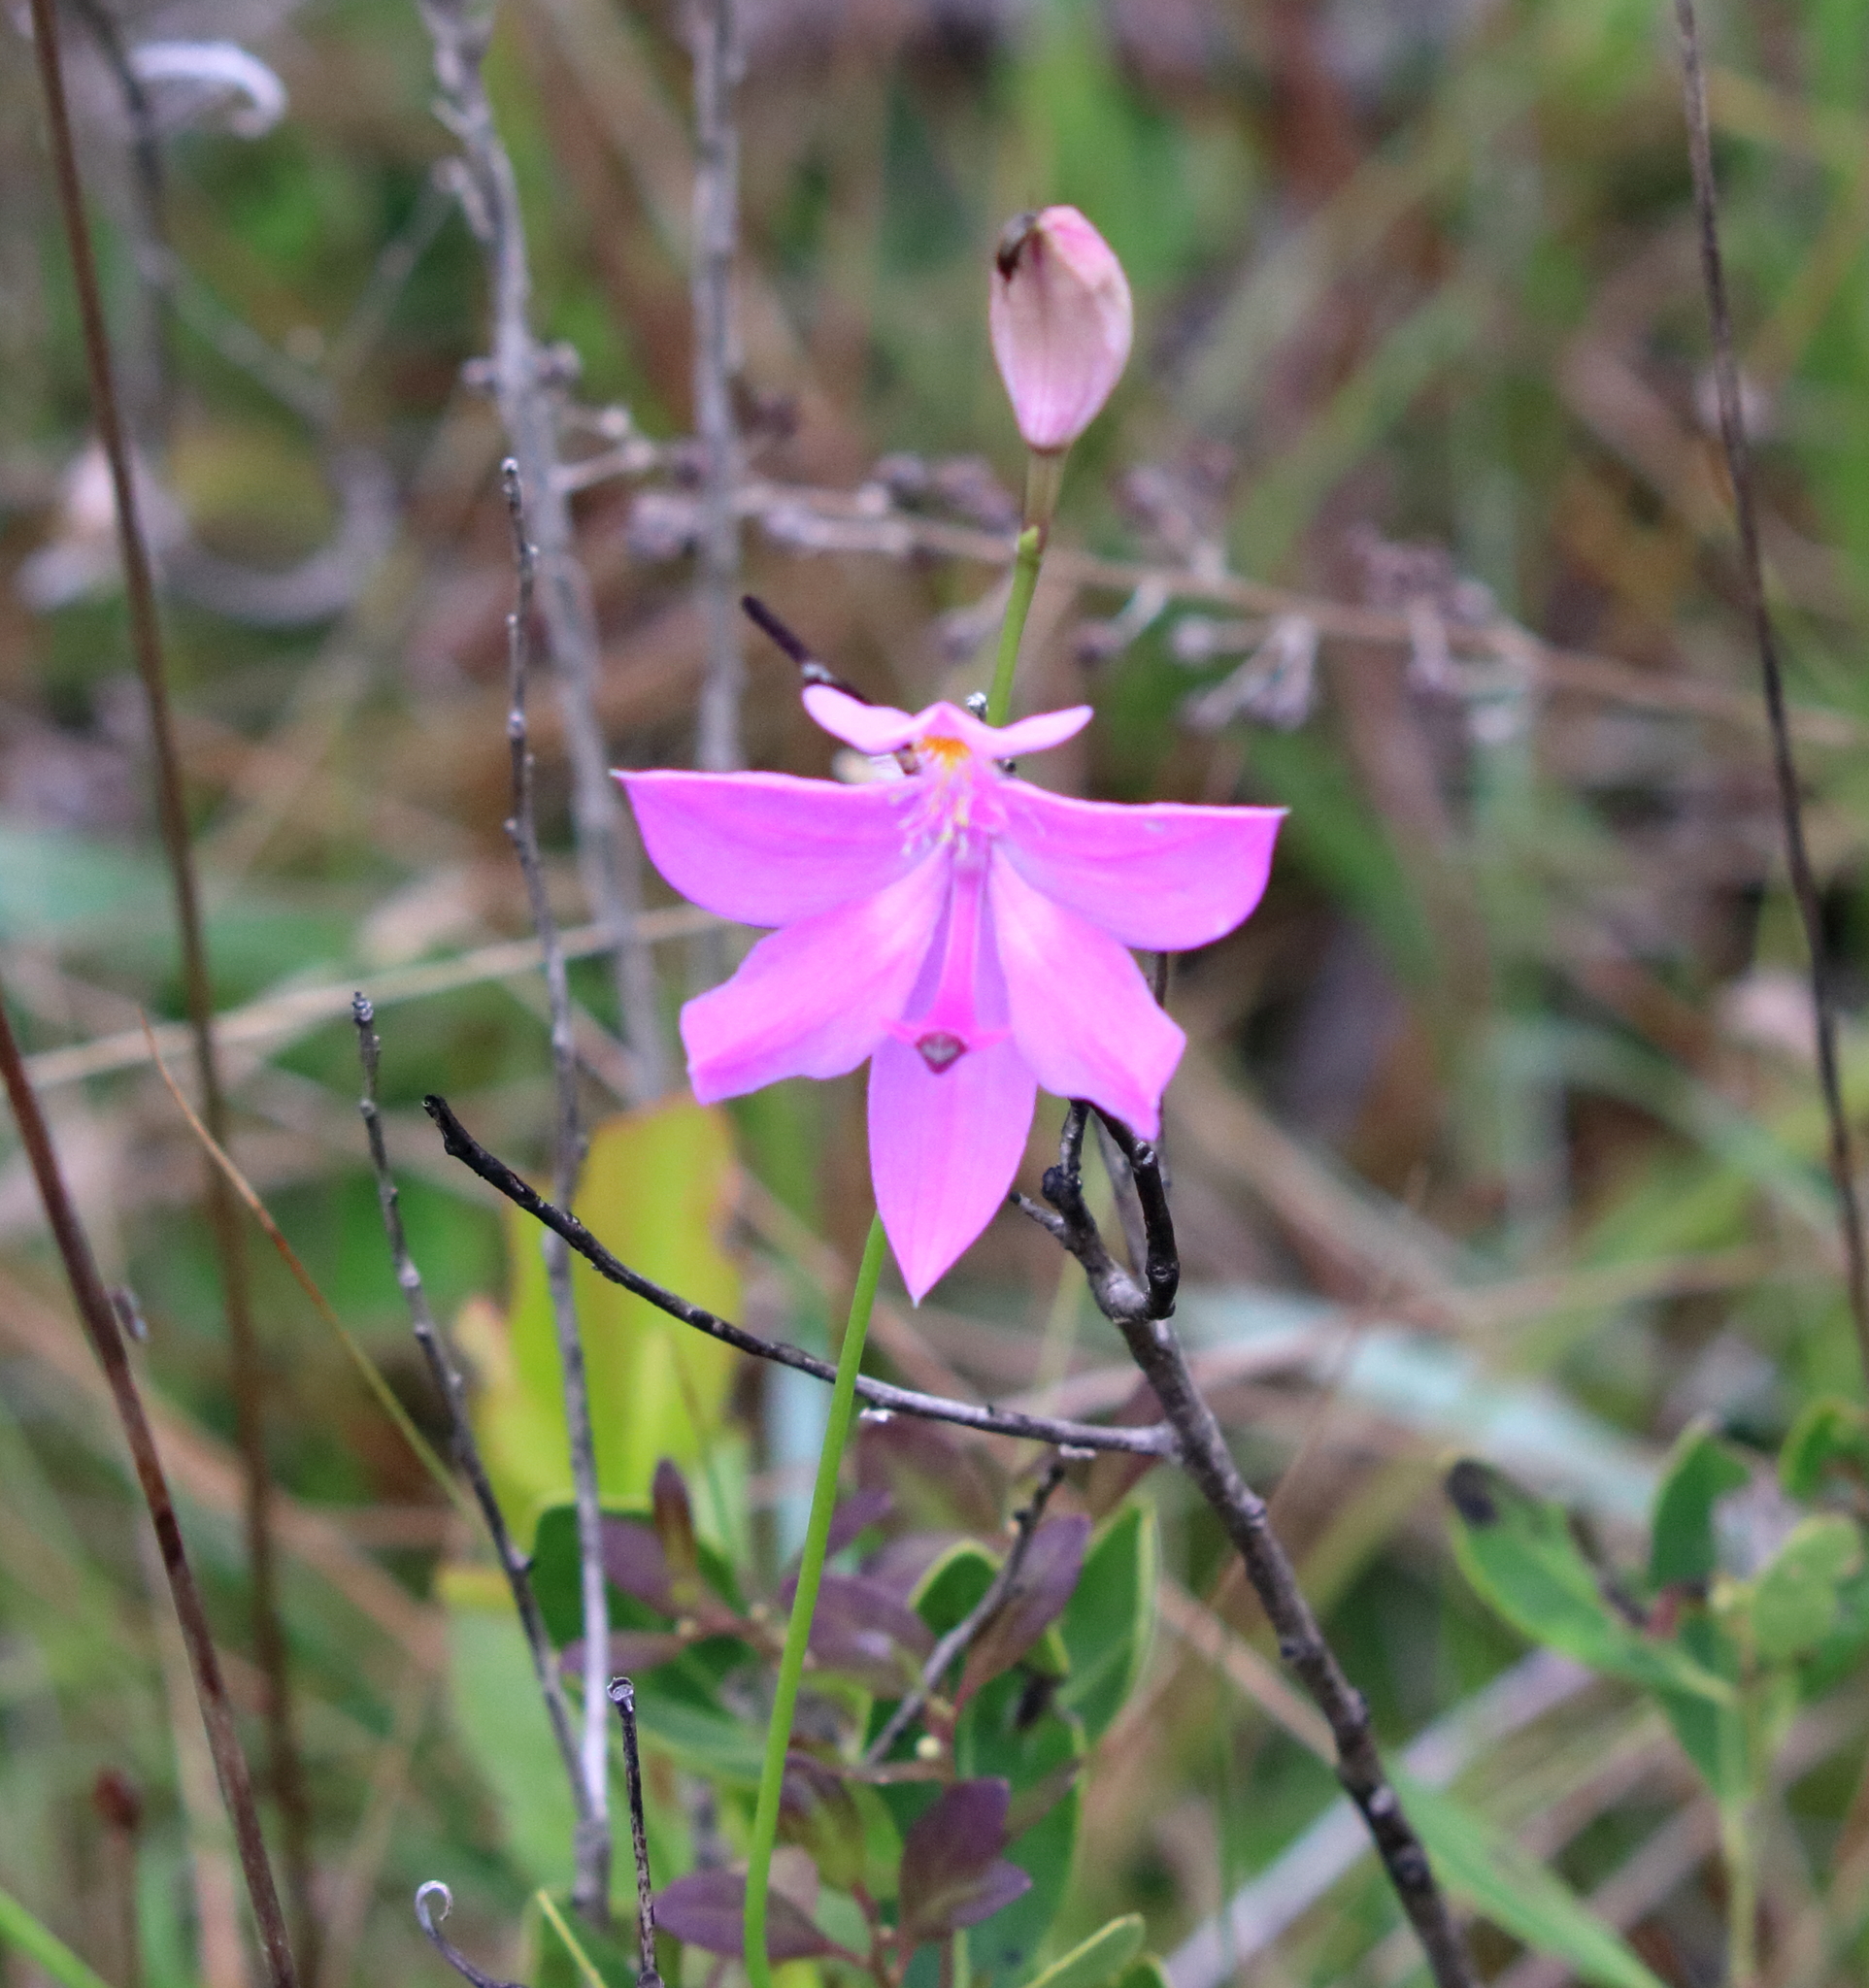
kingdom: Plantae
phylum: Tracheophyta
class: Liliopsida
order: Asparagales
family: Orchidaceae
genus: Calopogon
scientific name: Calopogon tuberosus
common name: Grass-pink
